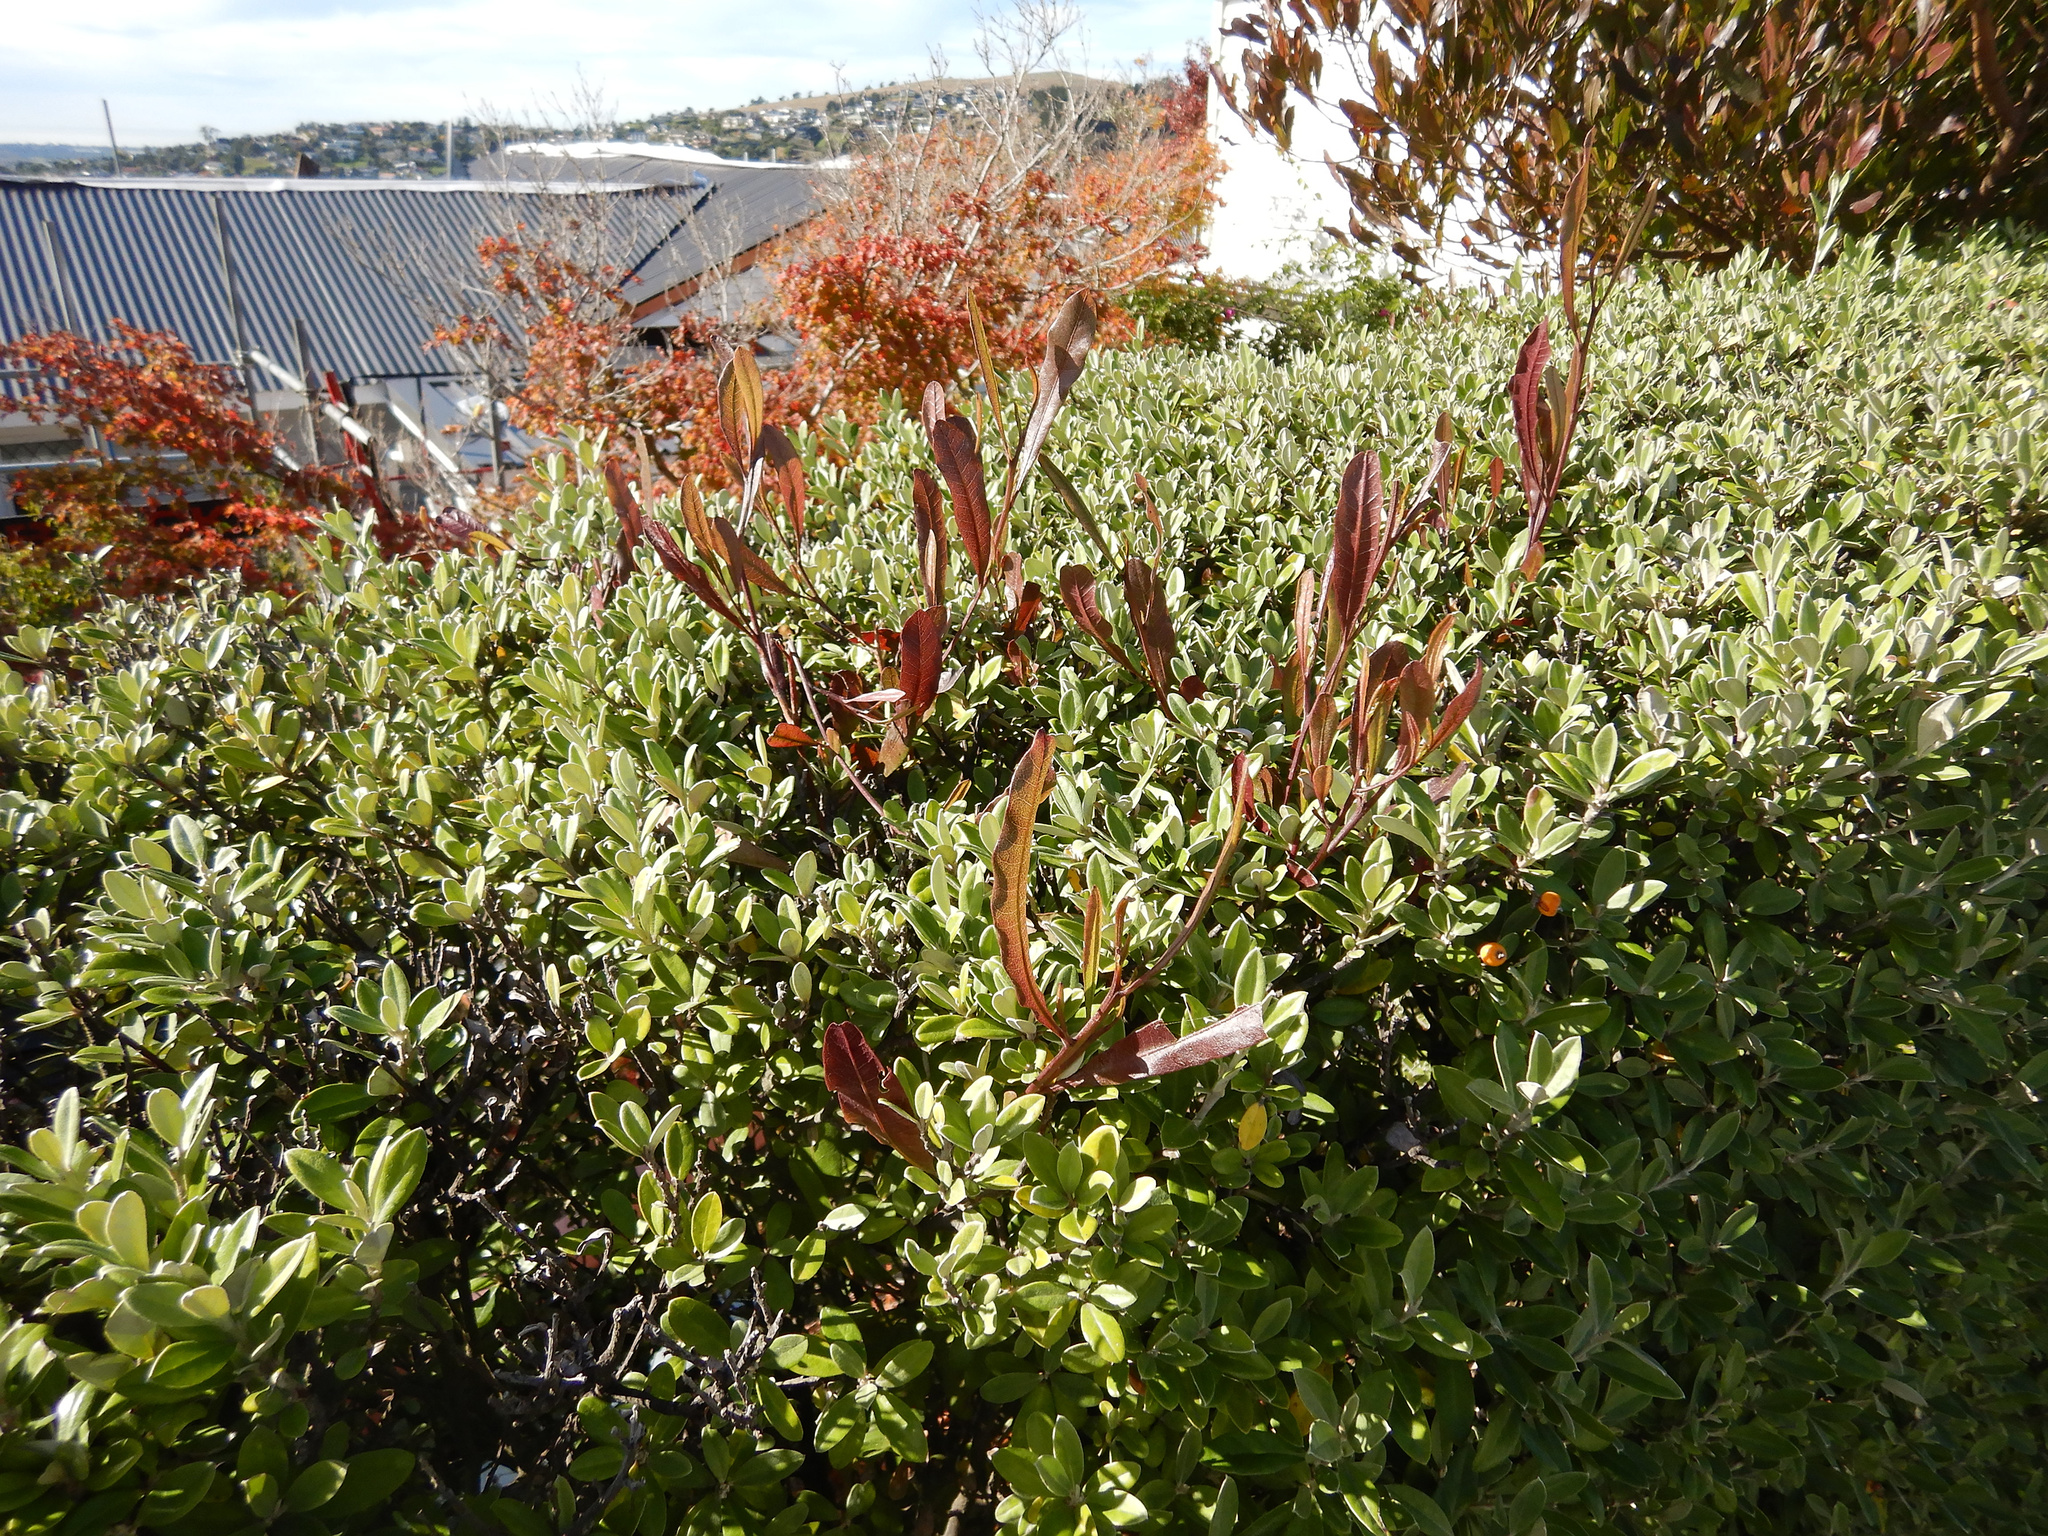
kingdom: Plantae
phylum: Tracheophyta
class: Magnoliopsida
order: Sapindales
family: Sapindaceae
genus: Dodonaea
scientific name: Dodonaea viscosa
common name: Hopbush
